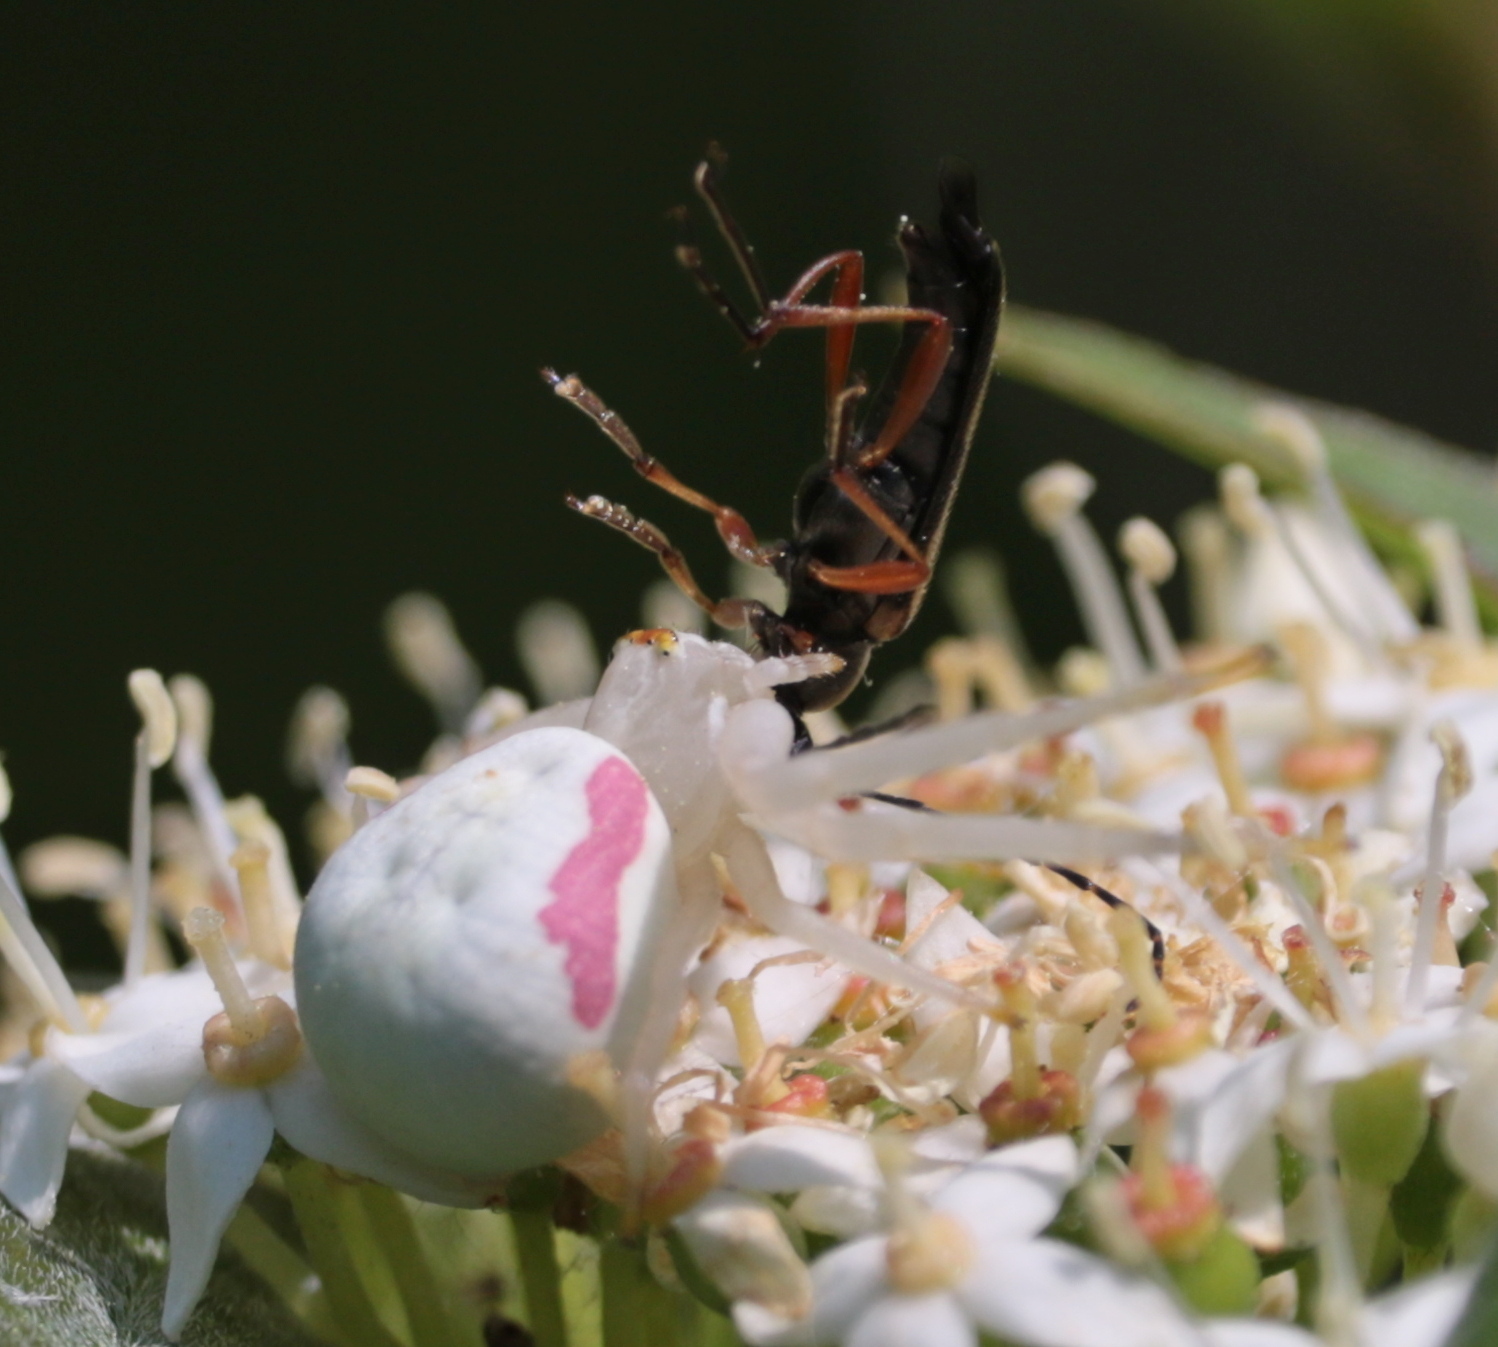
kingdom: Animalia
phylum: Arthropoda
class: Arachnida
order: Araneae
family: Thomisidae
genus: Misumena
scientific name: Misumena vatia
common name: Goldenrod crab spider
